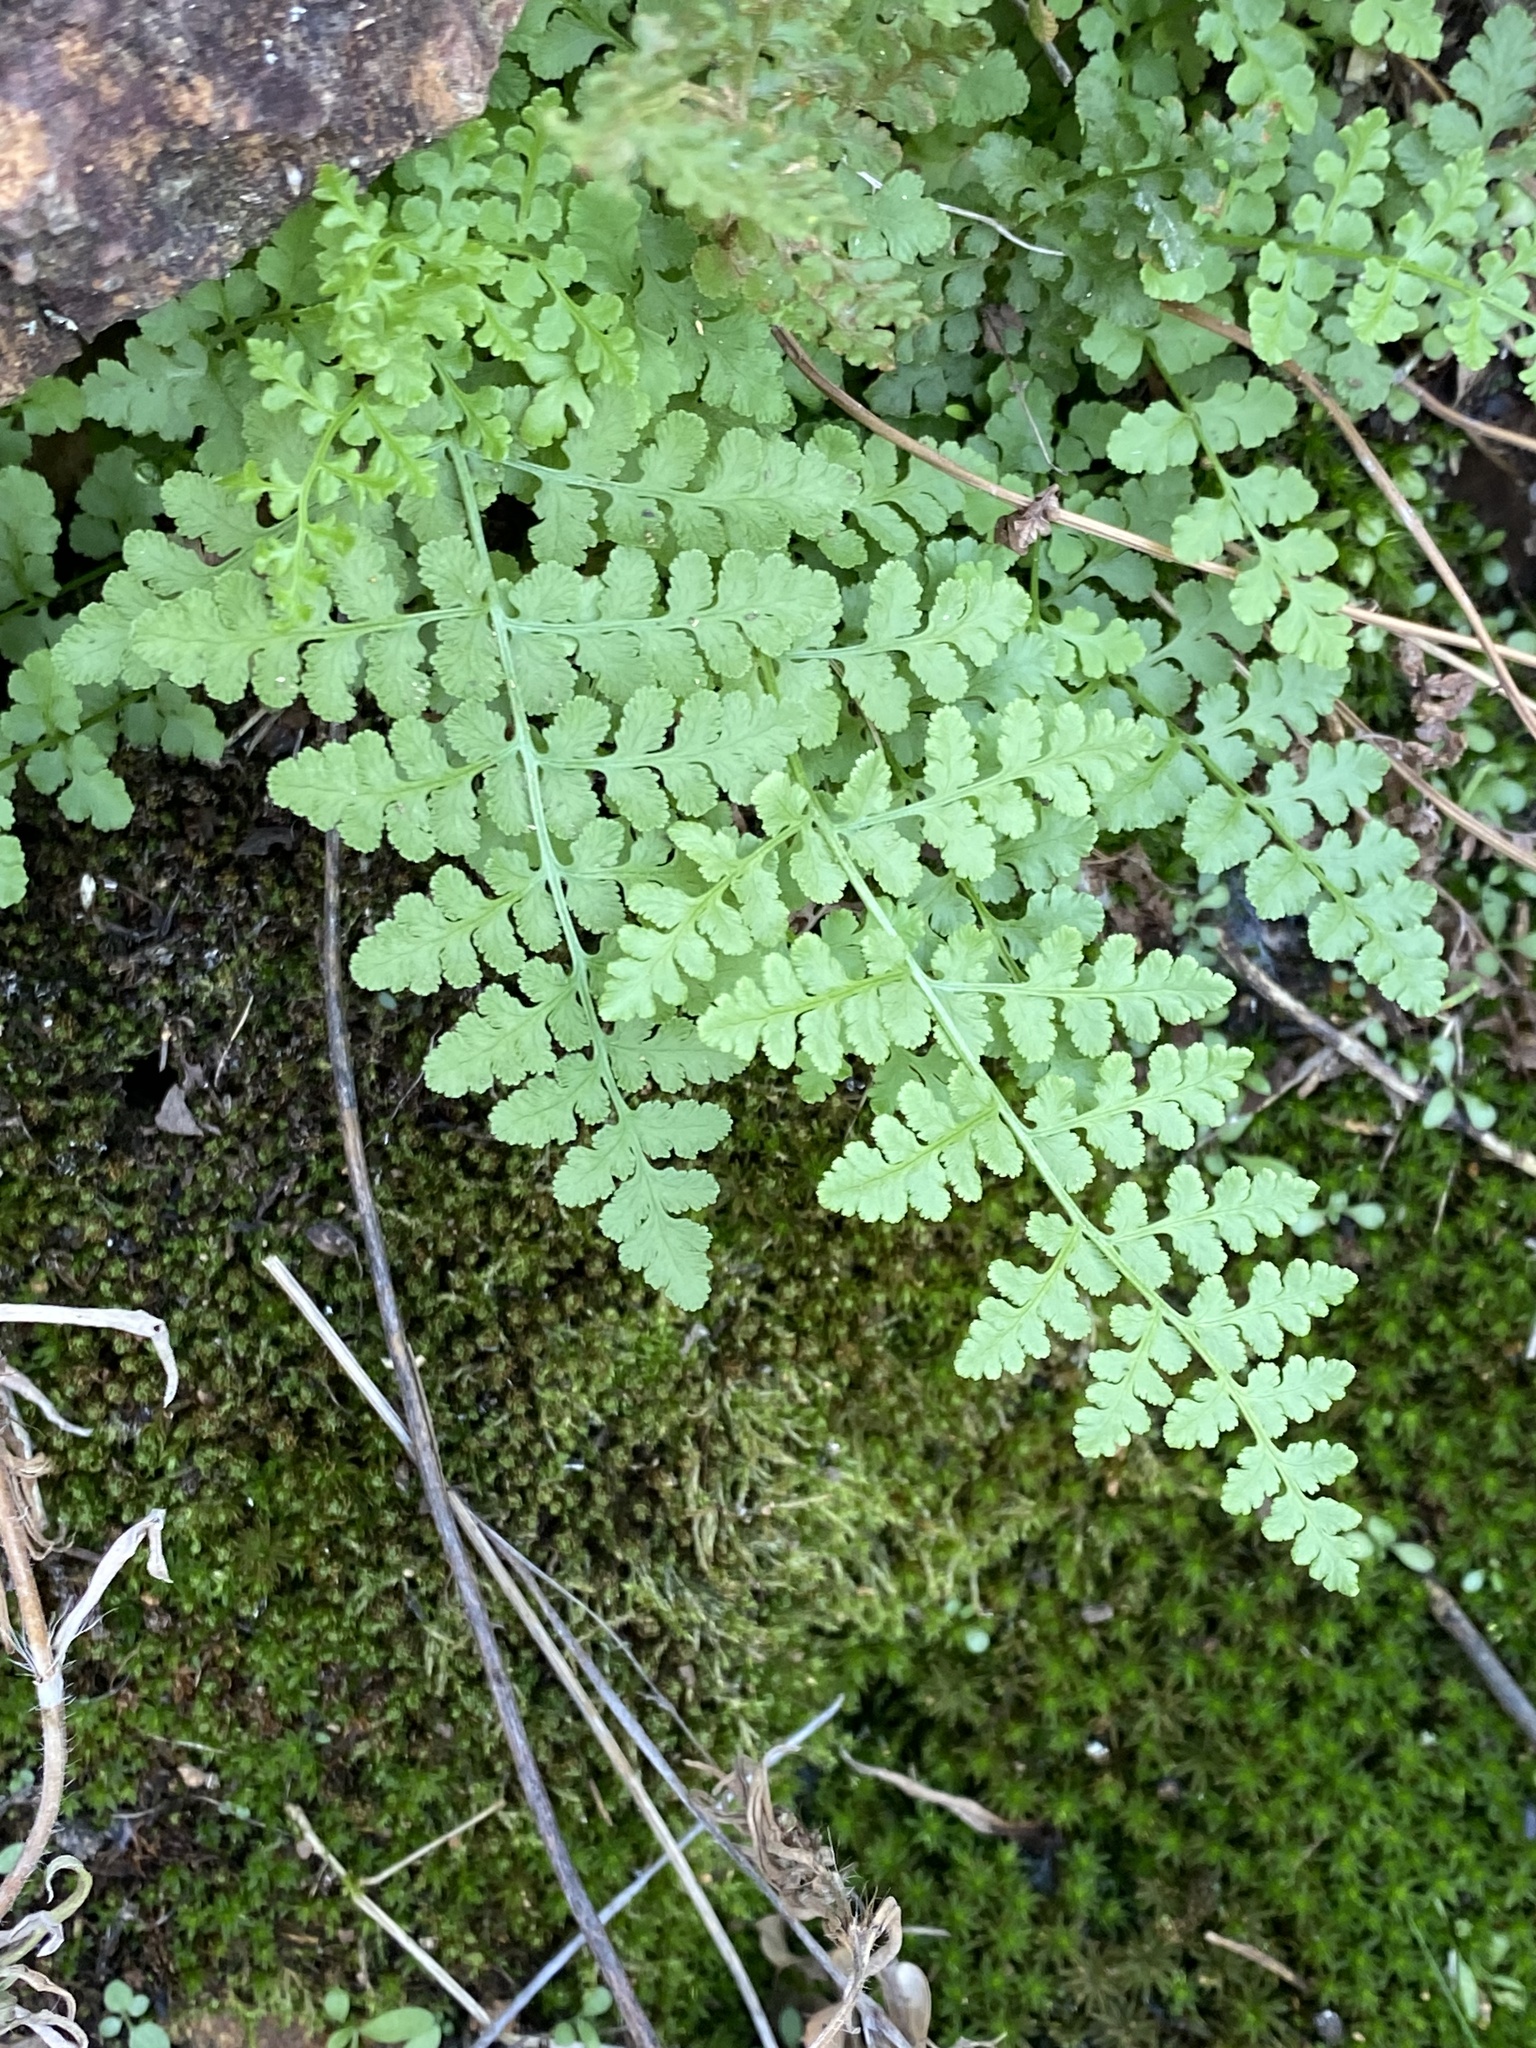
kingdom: Plantae
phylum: Tracheophyta
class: Polypodiopsida
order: Polypodiales
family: Woodsiaceae
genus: Physematium
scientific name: Physematium obtusum
